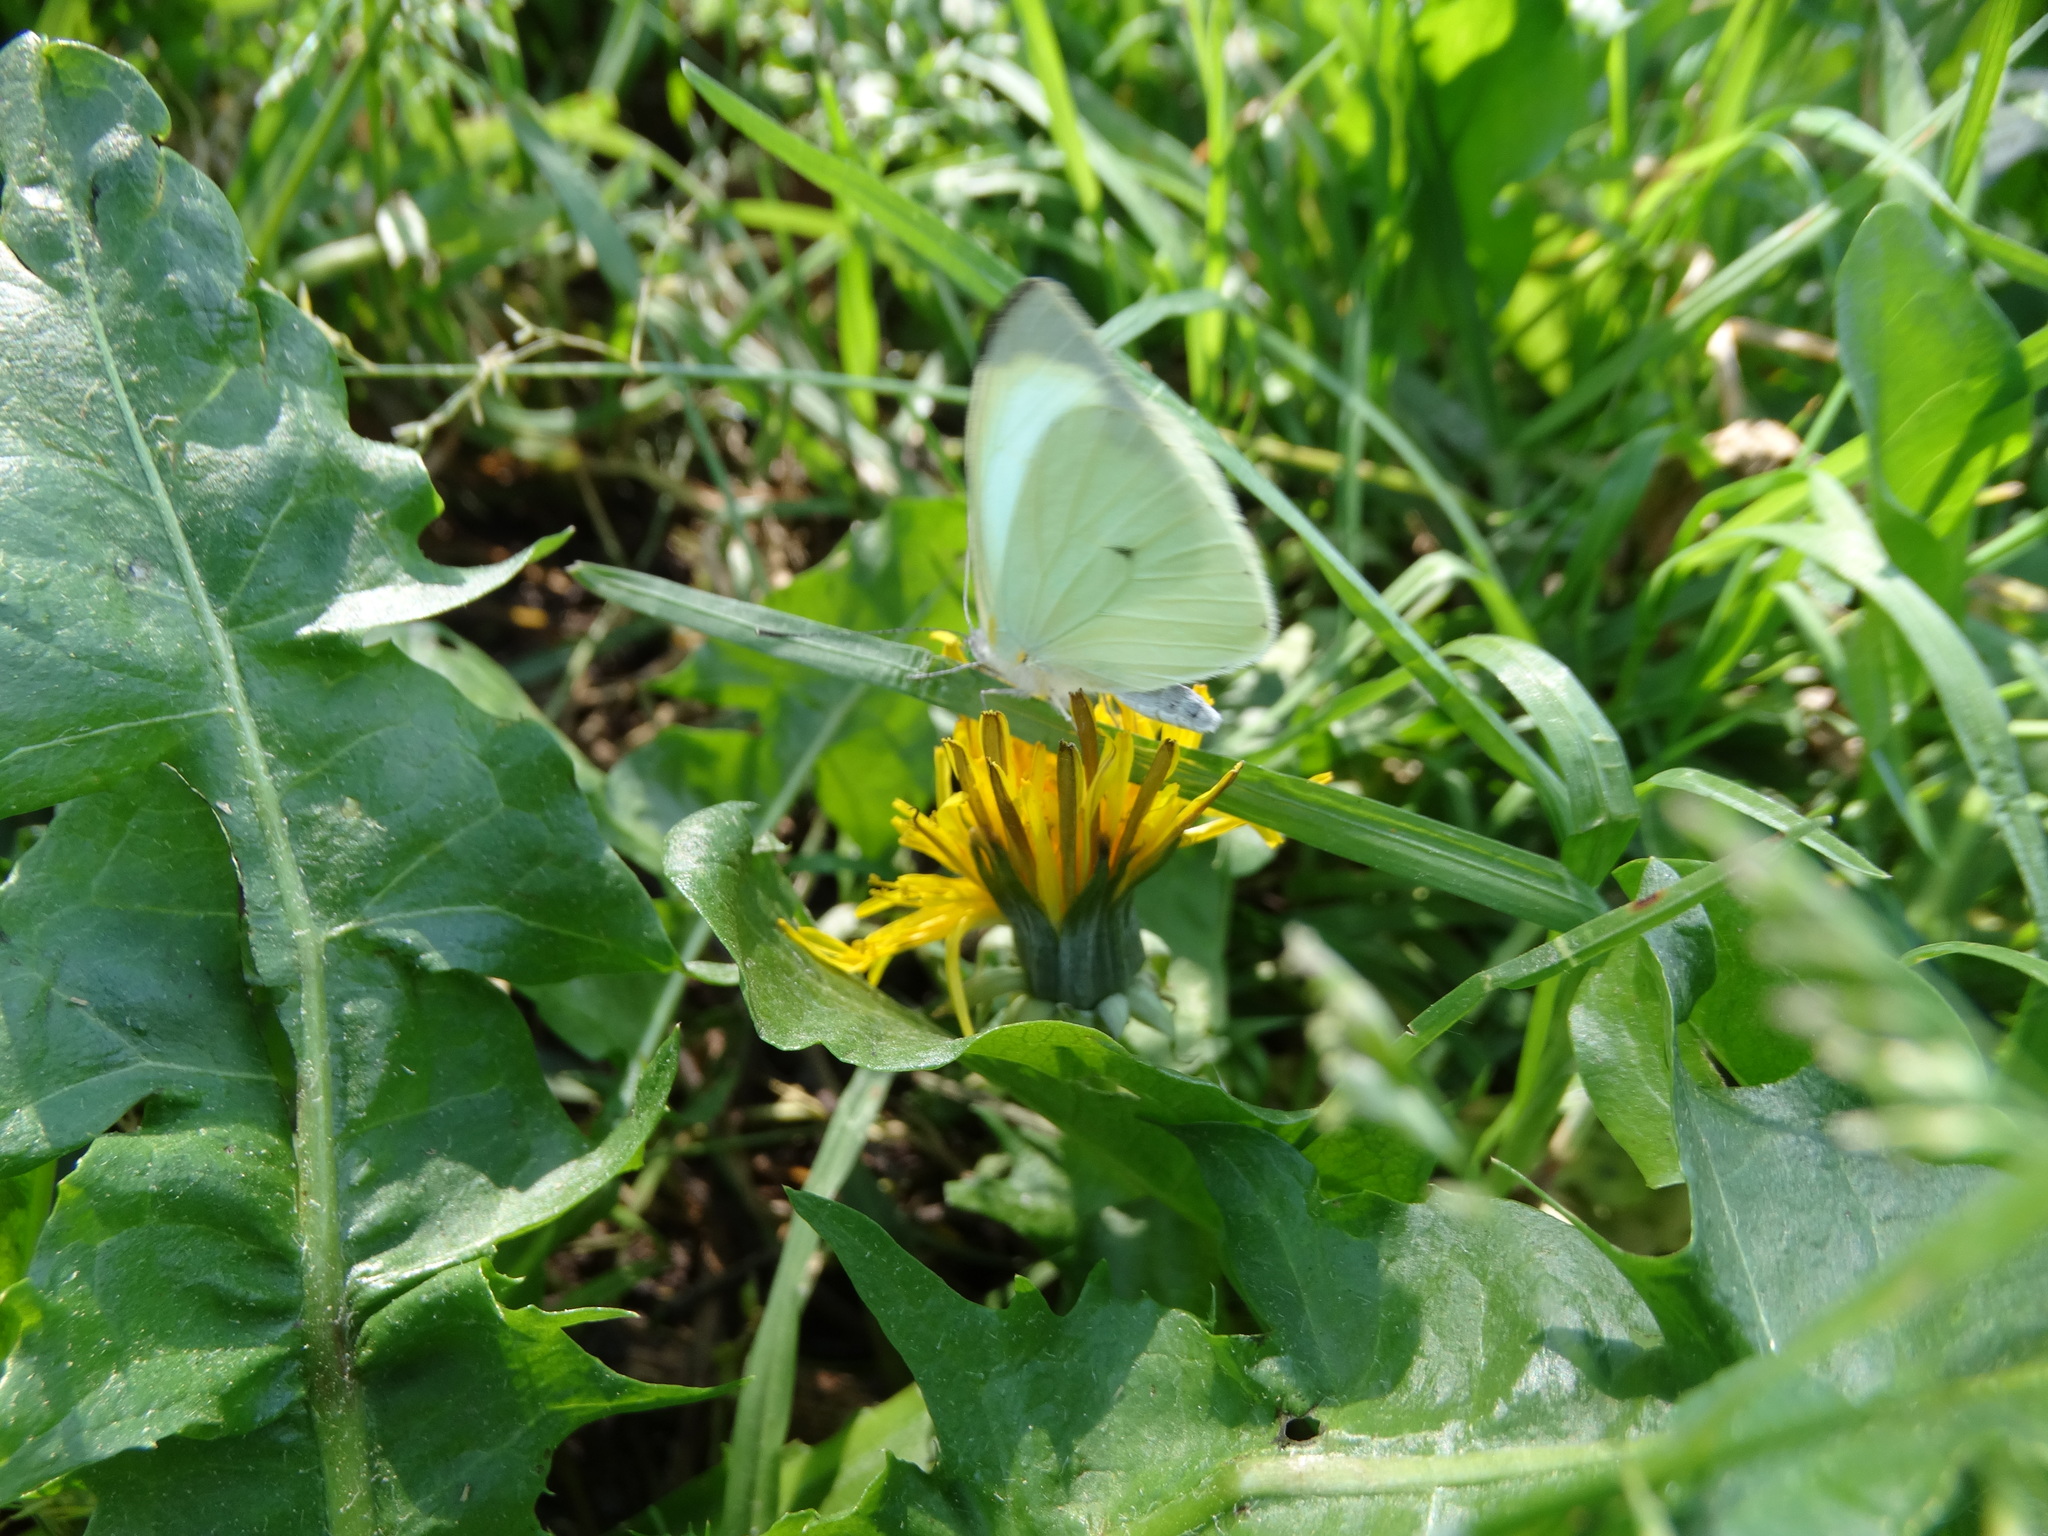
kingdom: Animalia
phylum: Arthropoda
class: Insecta
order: Lepidoptera
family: Pieridae
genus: Leptophobia
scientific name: Leptophobia aripa
